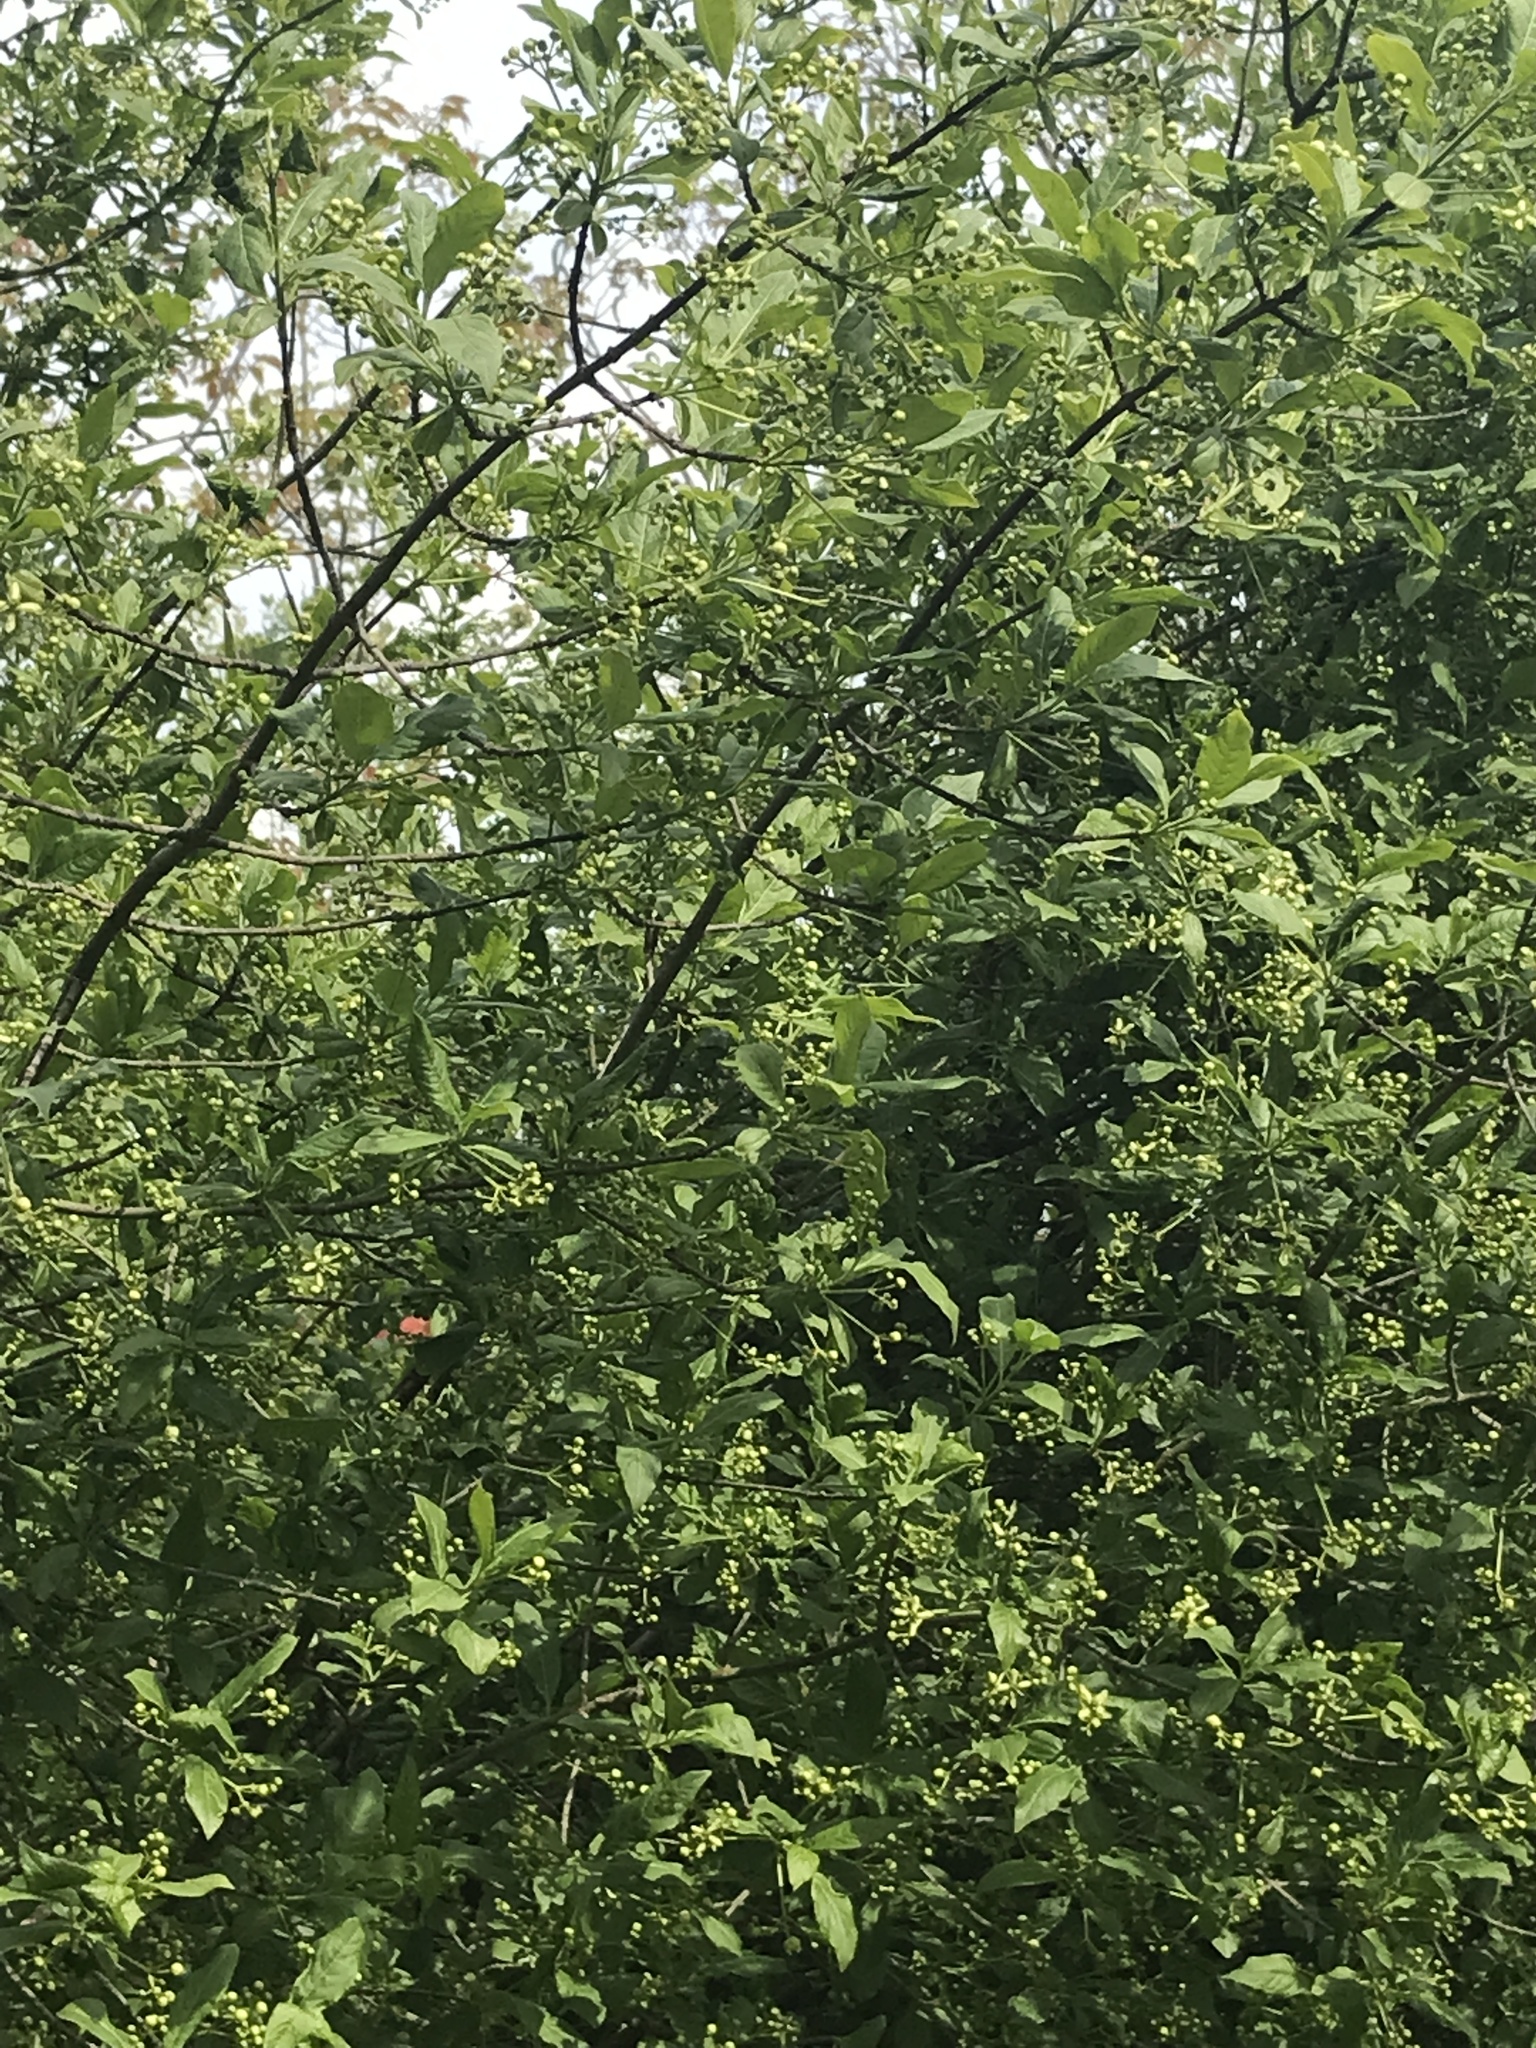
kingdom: Plantae
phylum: Tracheophyta
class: Magnoliopsida
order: Celastrales
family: Celastraceae
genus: Euonymus
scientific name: Euonymus europaeus
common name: Spindle
